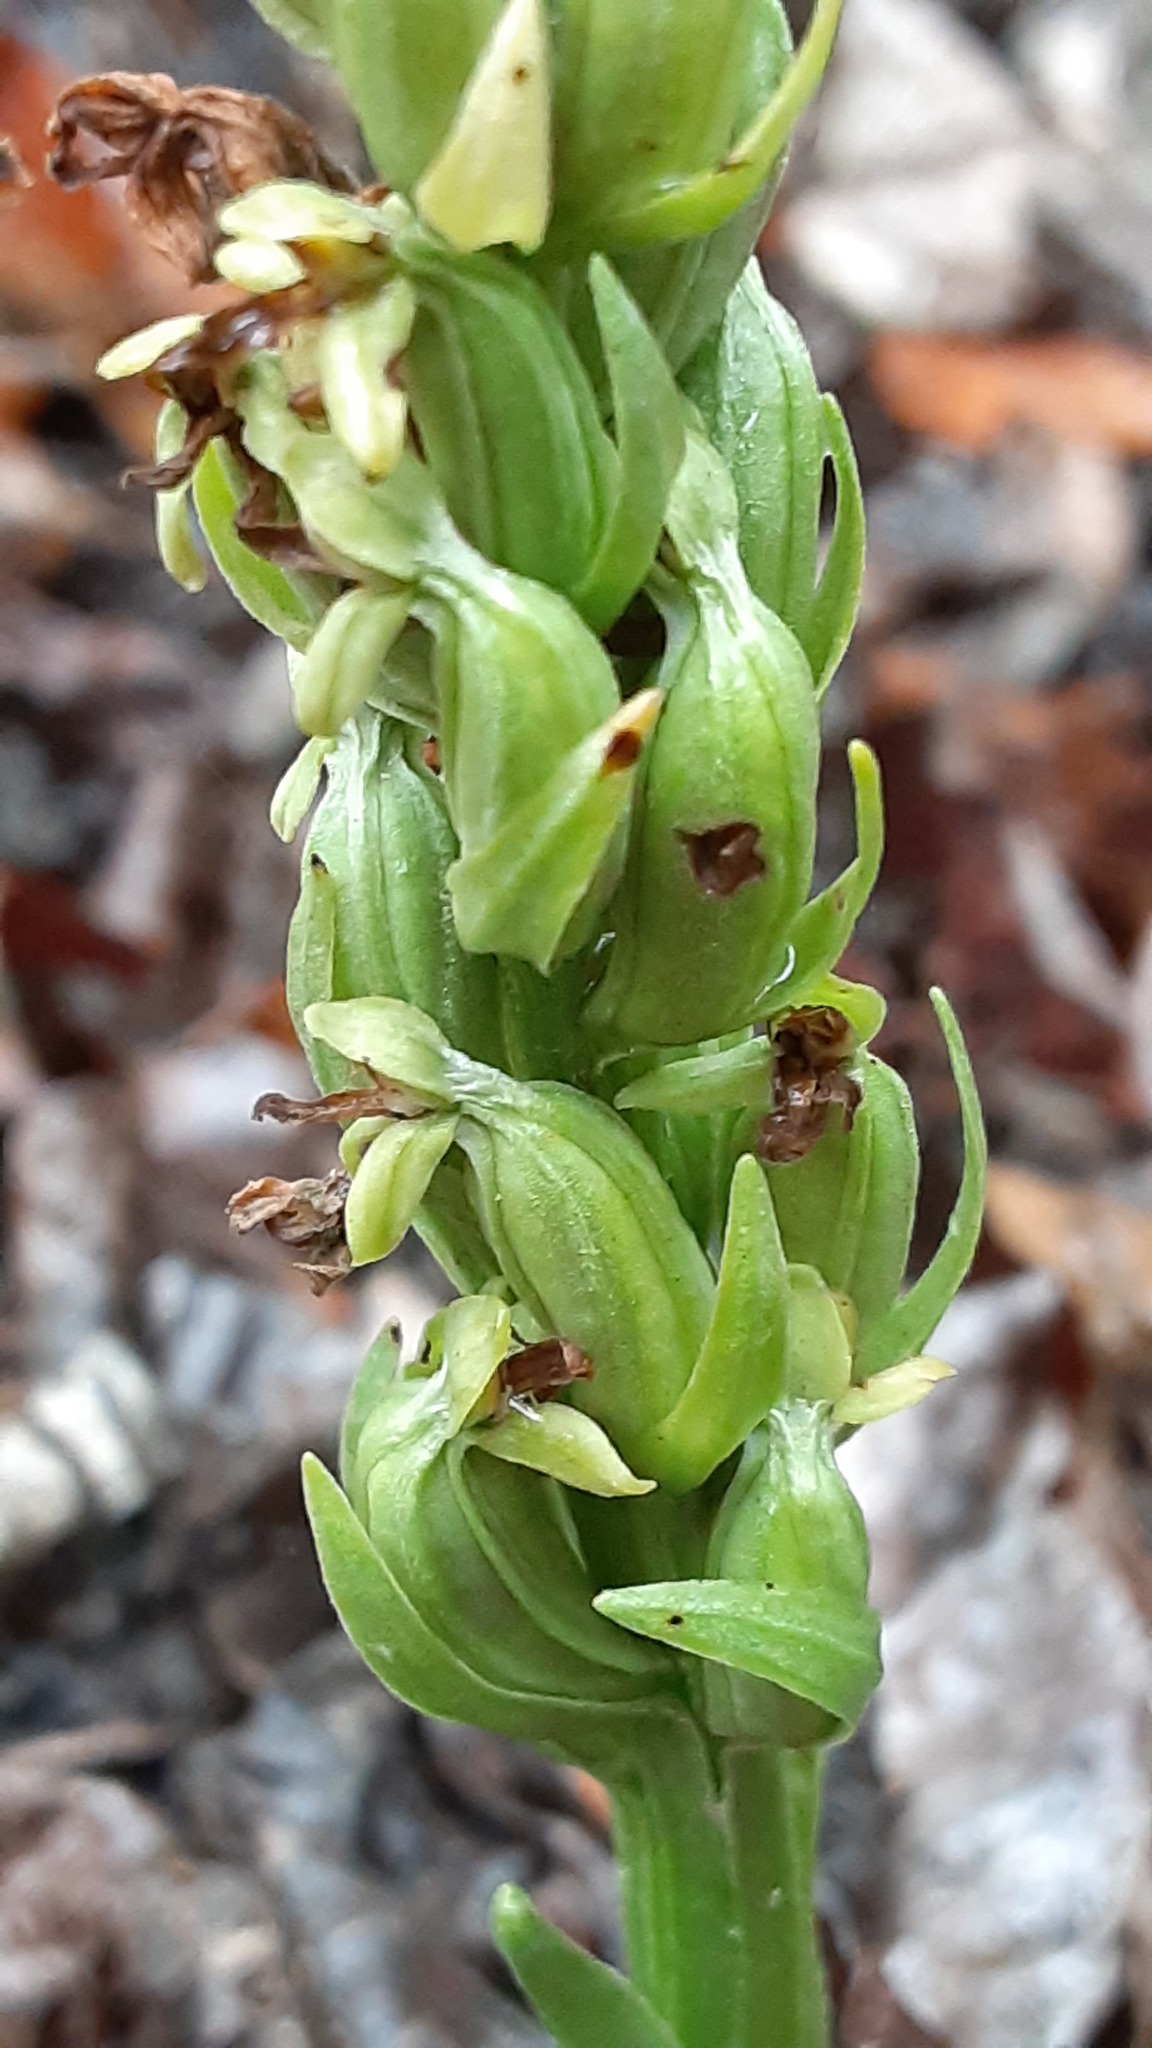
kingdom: Plantae
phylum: Tracheophyta
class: Liliopsida
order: Asparagales
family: Orchidaceae
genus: Platanthera
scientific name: Platanthera aquilonis
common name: Northern green orchid
